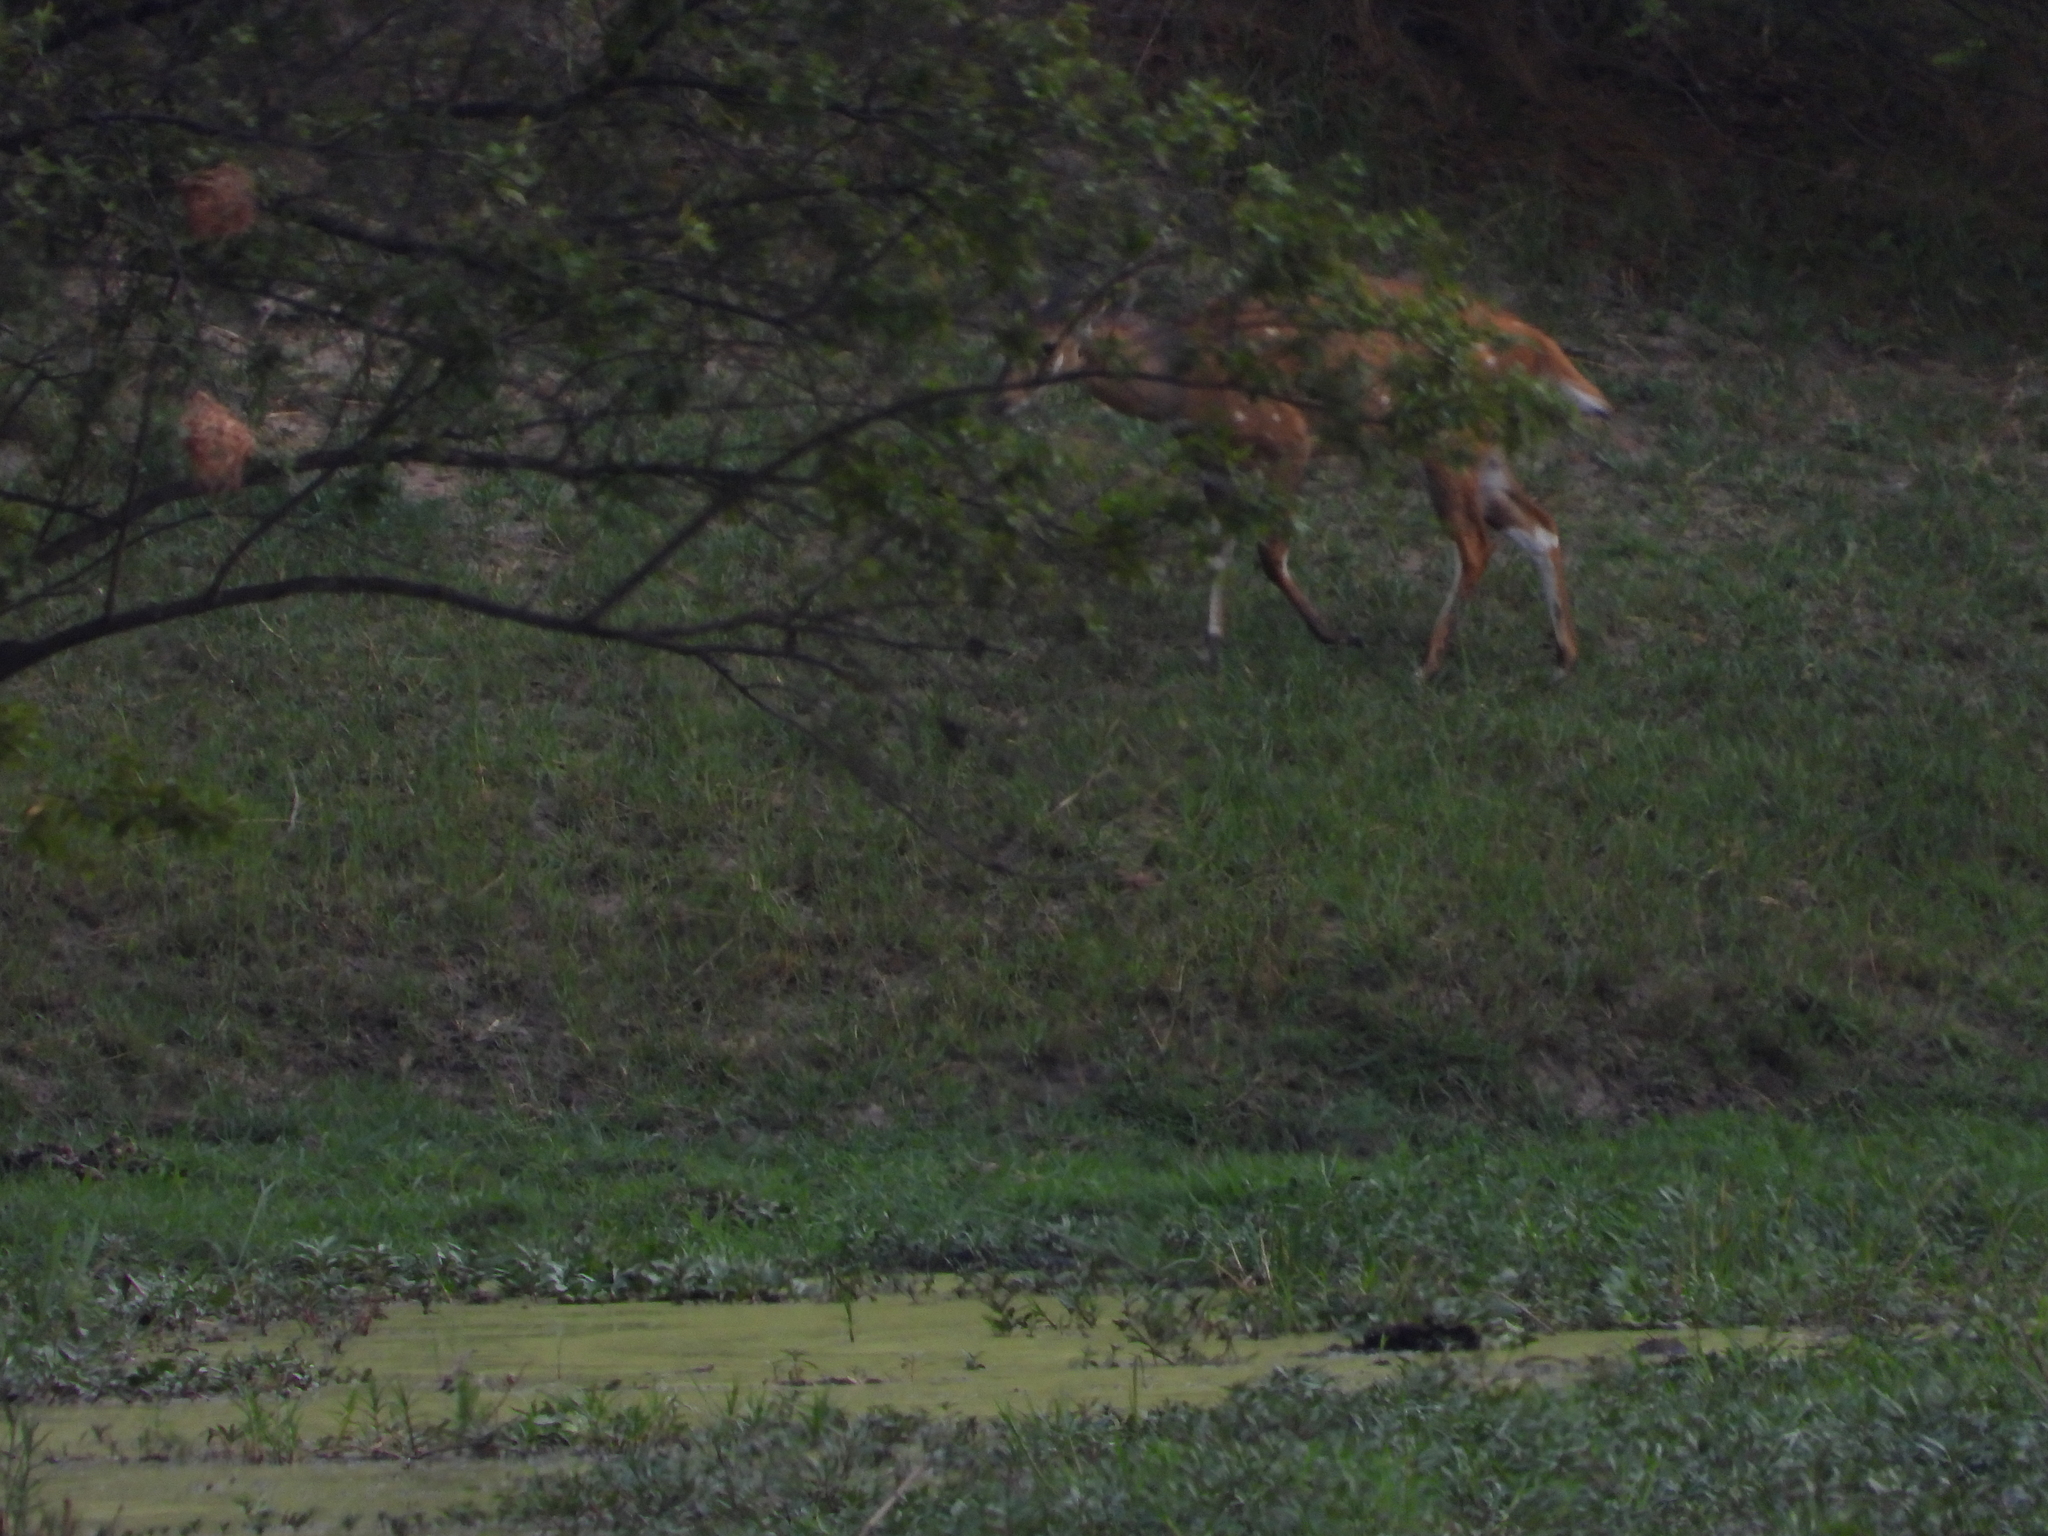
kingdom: Animalia
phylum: Chordata
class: Mammalia
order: Artiodactyla
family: Bovidae
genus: Tragelaphus
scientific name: Tragelaphus scriptus
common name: Bushbuck
